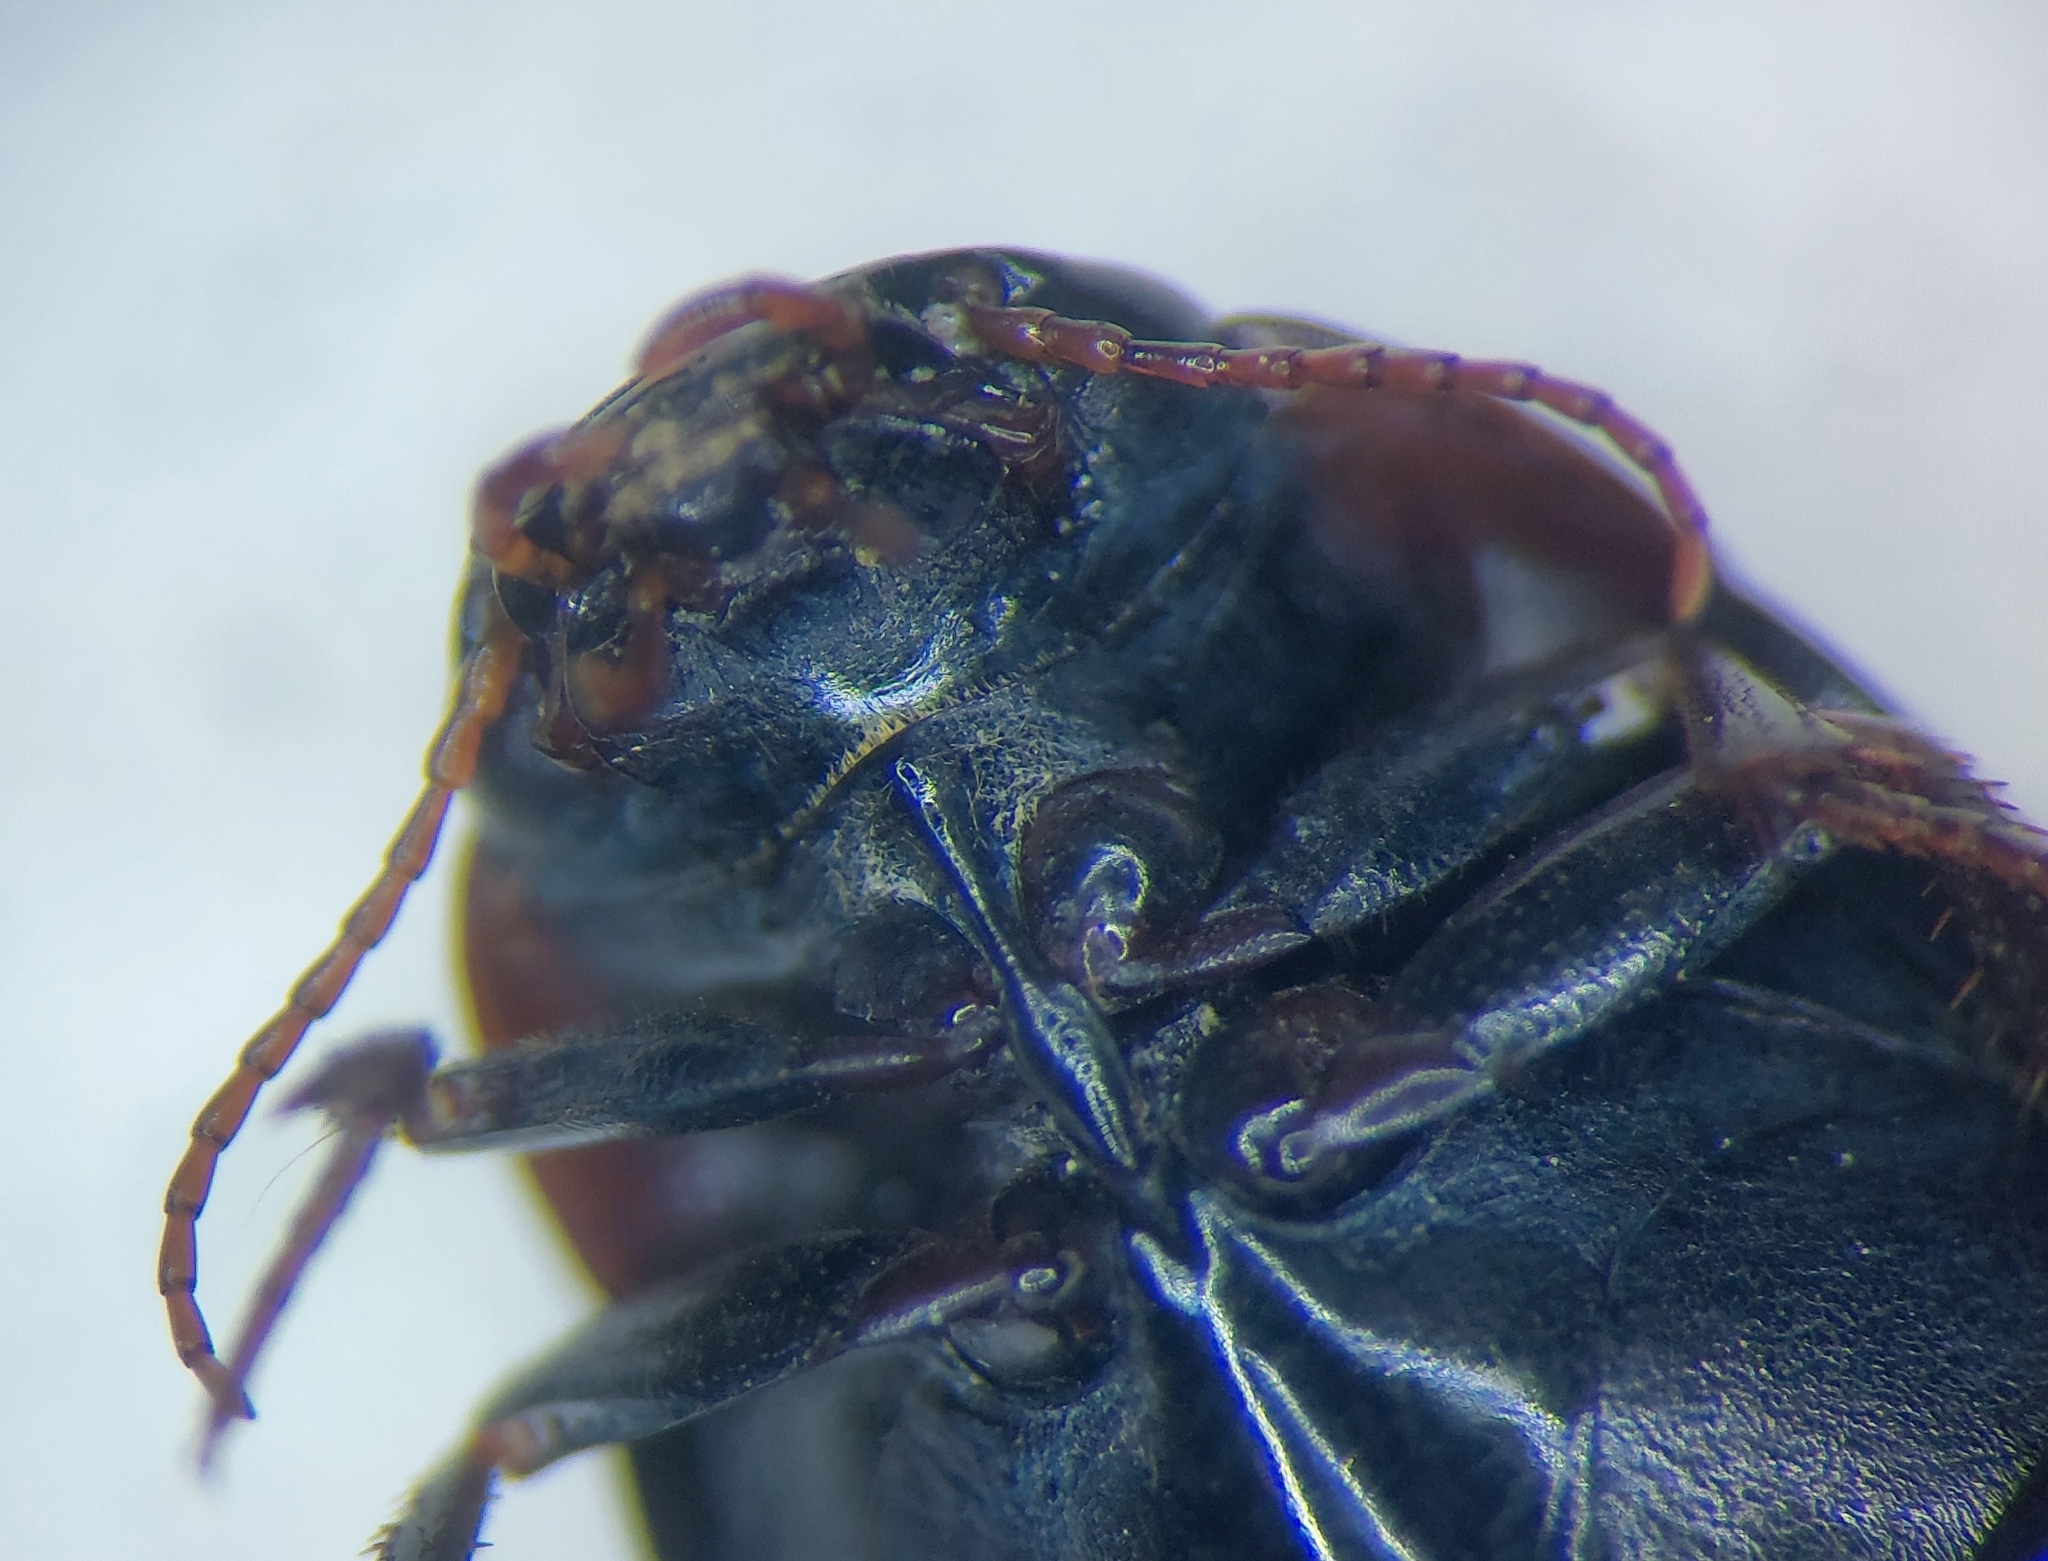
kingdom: Animalia
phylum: Arthropoda
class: Insecta
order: Coleoptera
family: Dytiscidae
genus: Agabus
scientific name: Agabus guttatus
